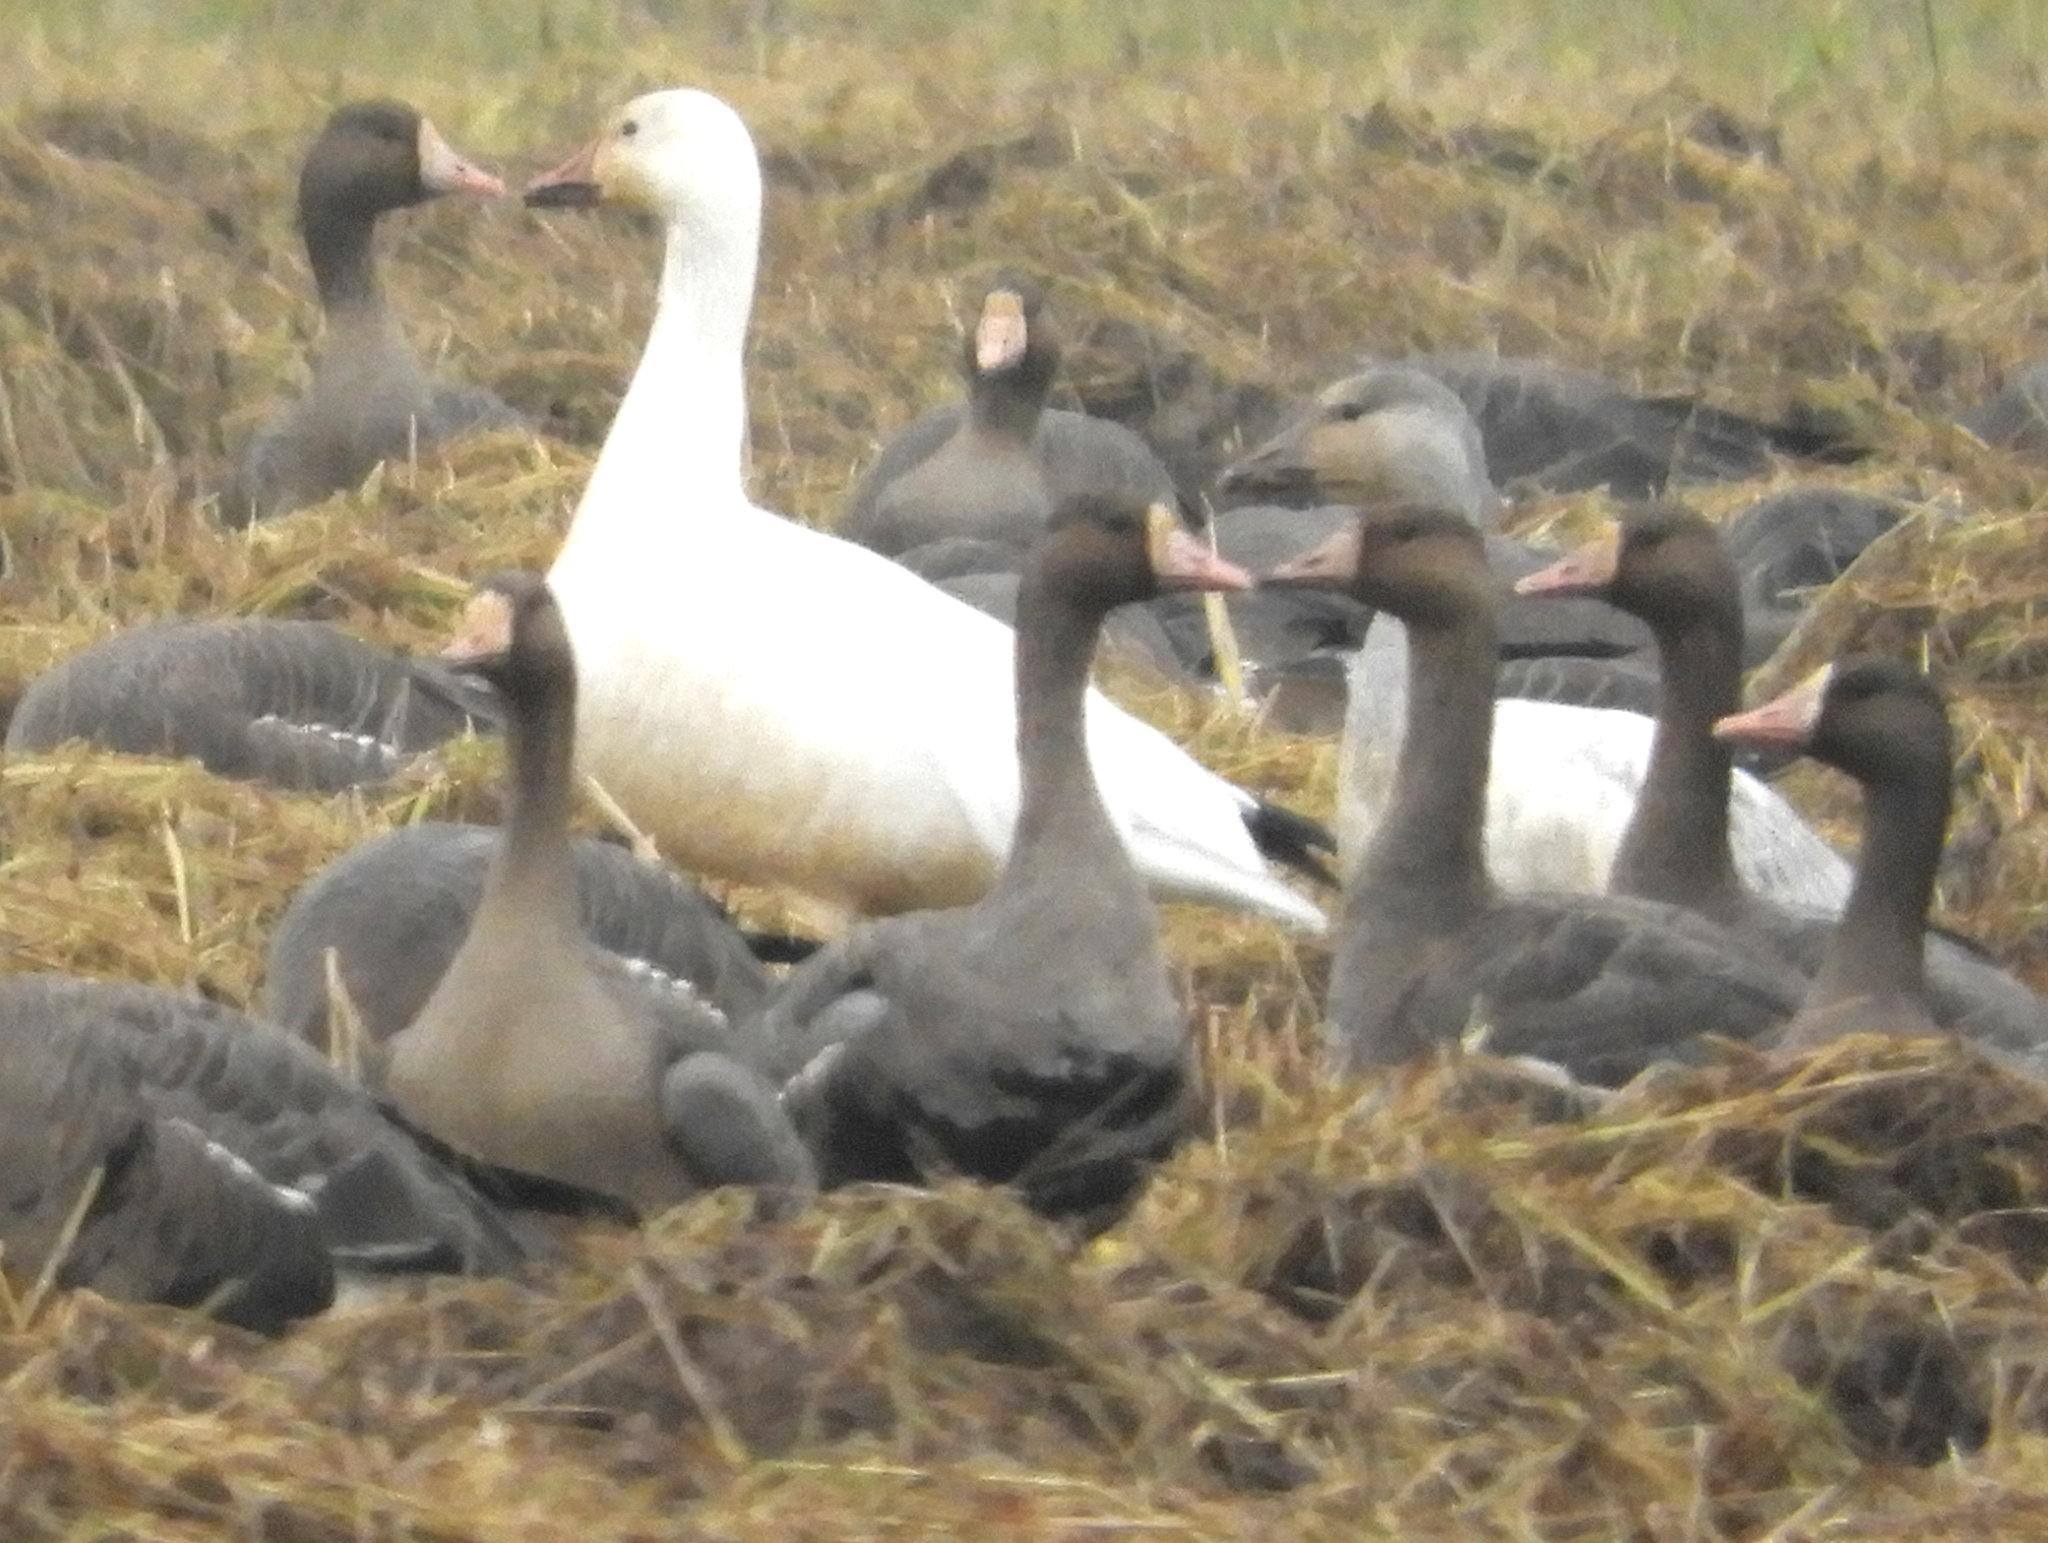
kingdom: Animalia
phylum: Chordata
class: Aves
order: Anseriformes
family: Anatidae
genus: Anser
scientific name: Anser caerulescens
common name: Snow goose
